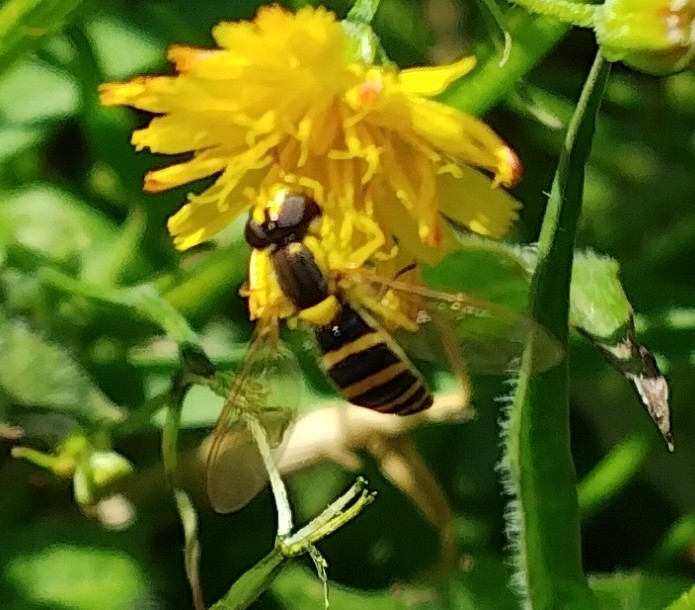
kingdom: Animalia
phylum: Arthropoda
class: Insecta
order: Diptera
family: Syrphidae
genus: Sphaerophoria
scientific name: Sphaerophoria
